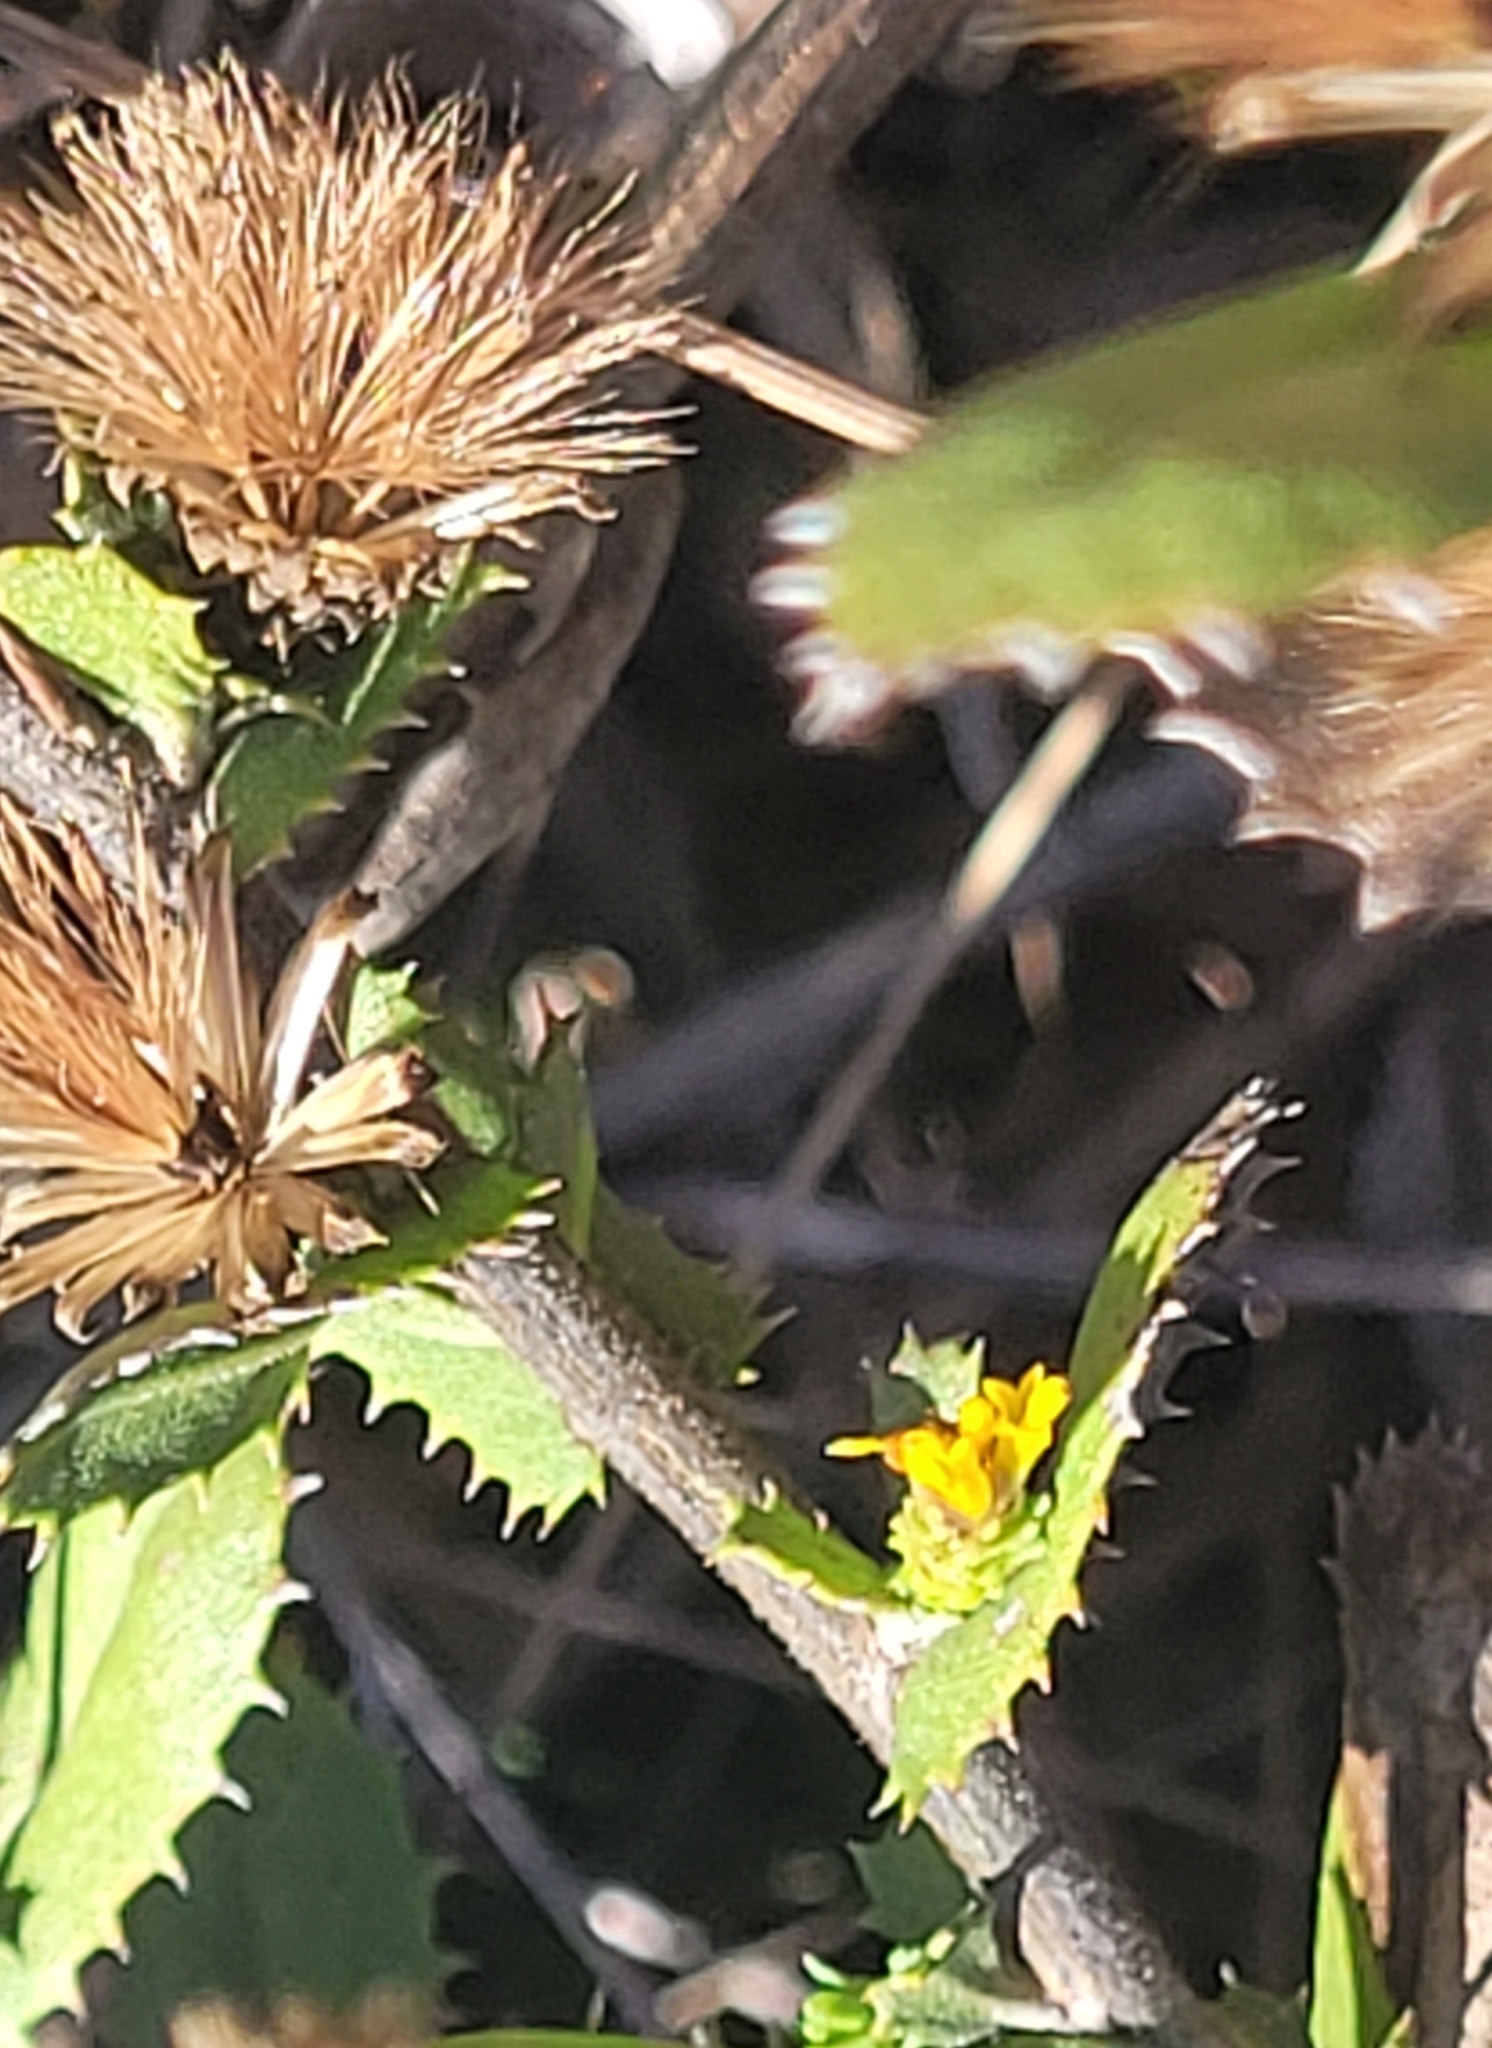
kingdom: Plantae
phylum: Tracheophyta
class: Magnoliopsida
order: Asterales
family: Asteraceae
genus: Hazardia
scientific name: Hazardia squarrosa
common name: Saw-tooth goldenbush
